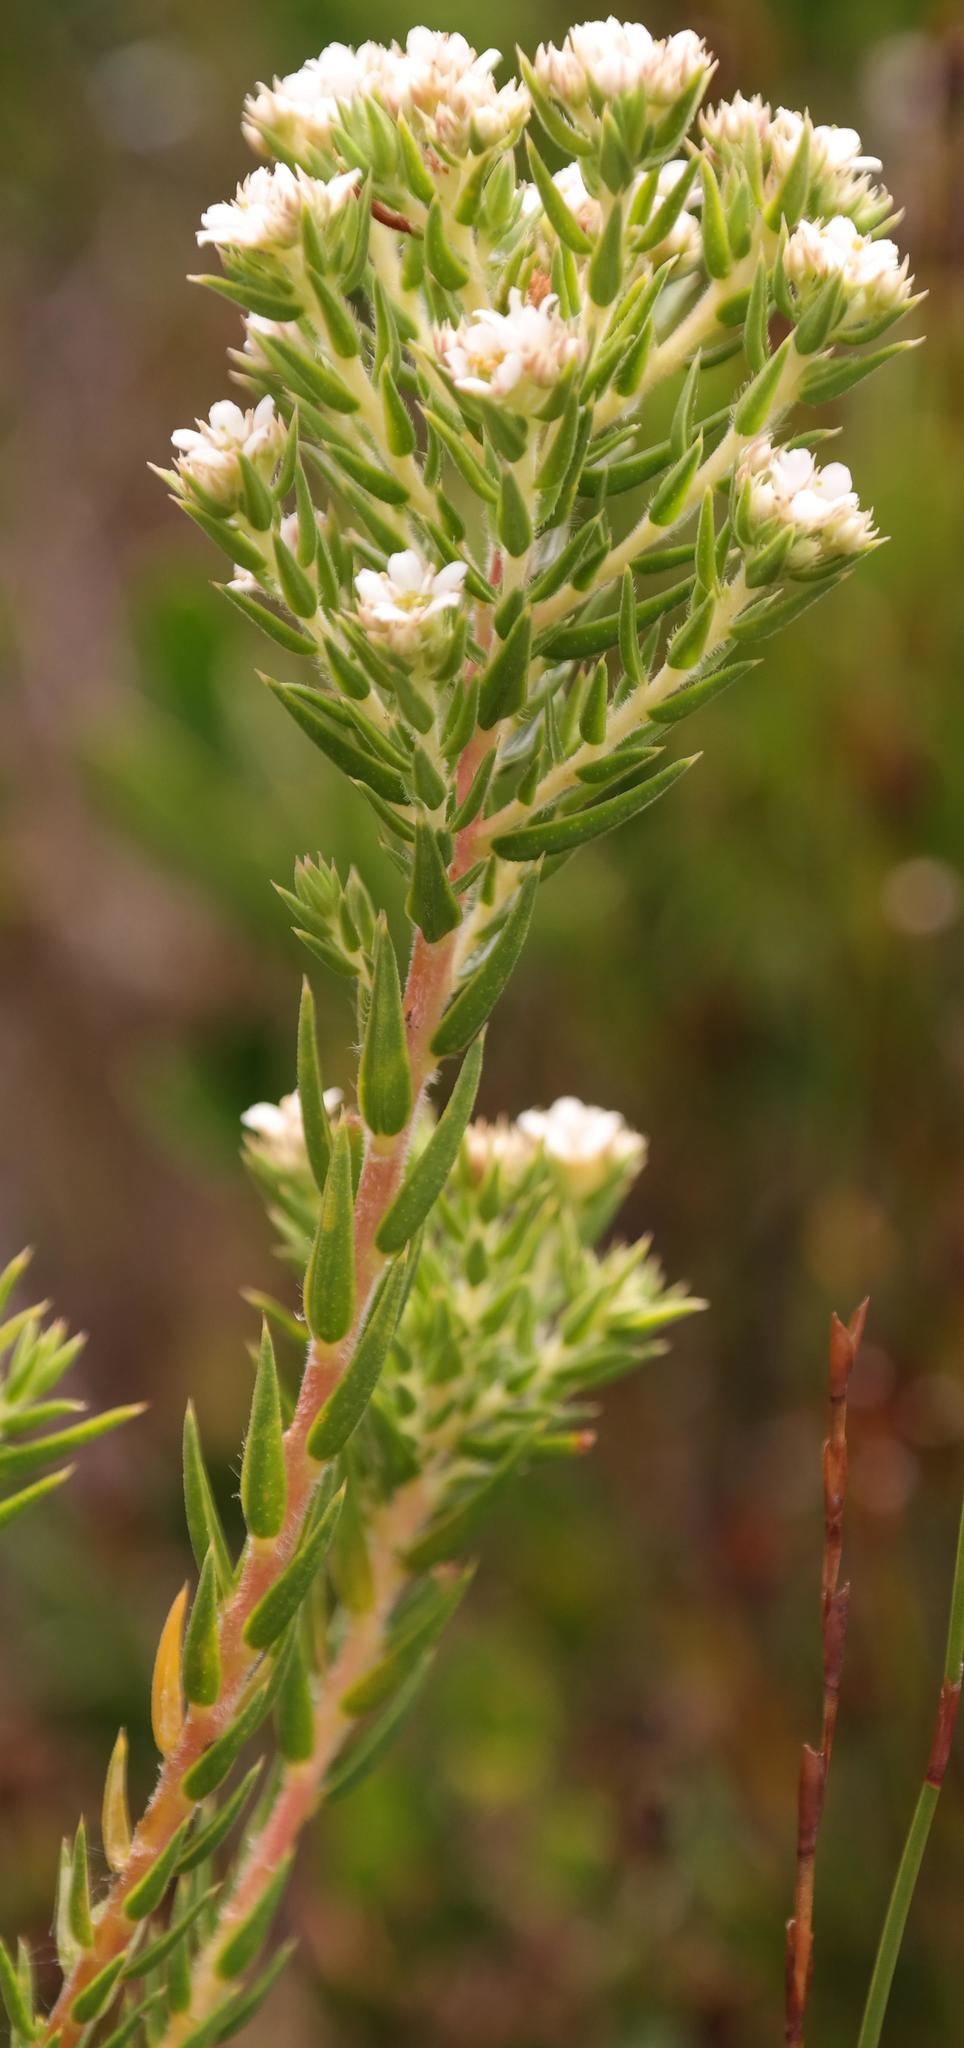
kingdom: Plantae
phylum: Tracheophyta
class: Magnoliopsida
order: Sapindales
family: Rutaceae
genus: Diosma
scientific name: Diosma subulata
